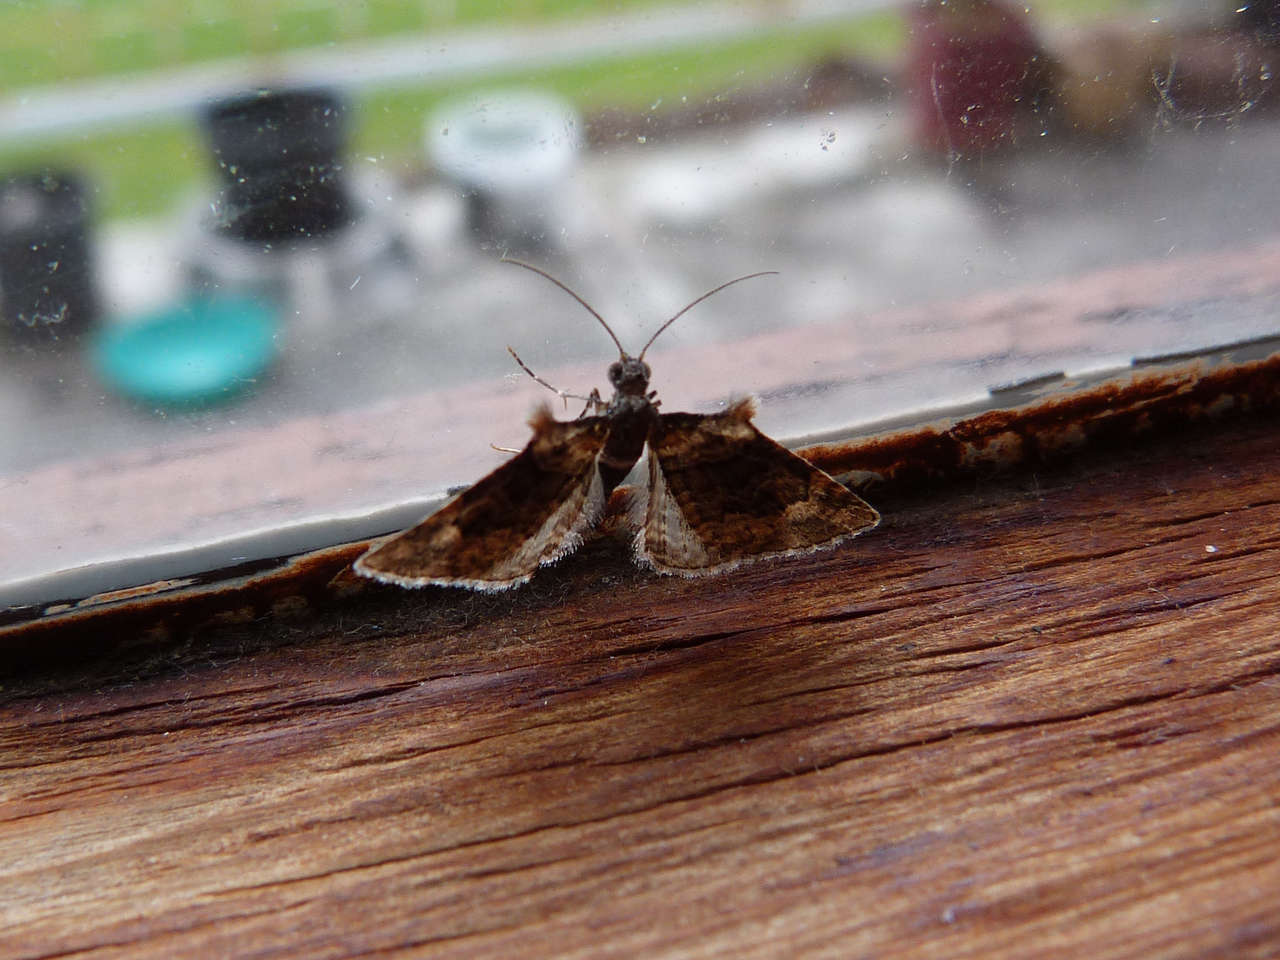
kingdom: Animalia
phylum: Arthropoda
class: Insecta
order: Lepidoptera
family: Geometridae
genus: Phrissogonus
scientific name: Phrissogonus laticostata
